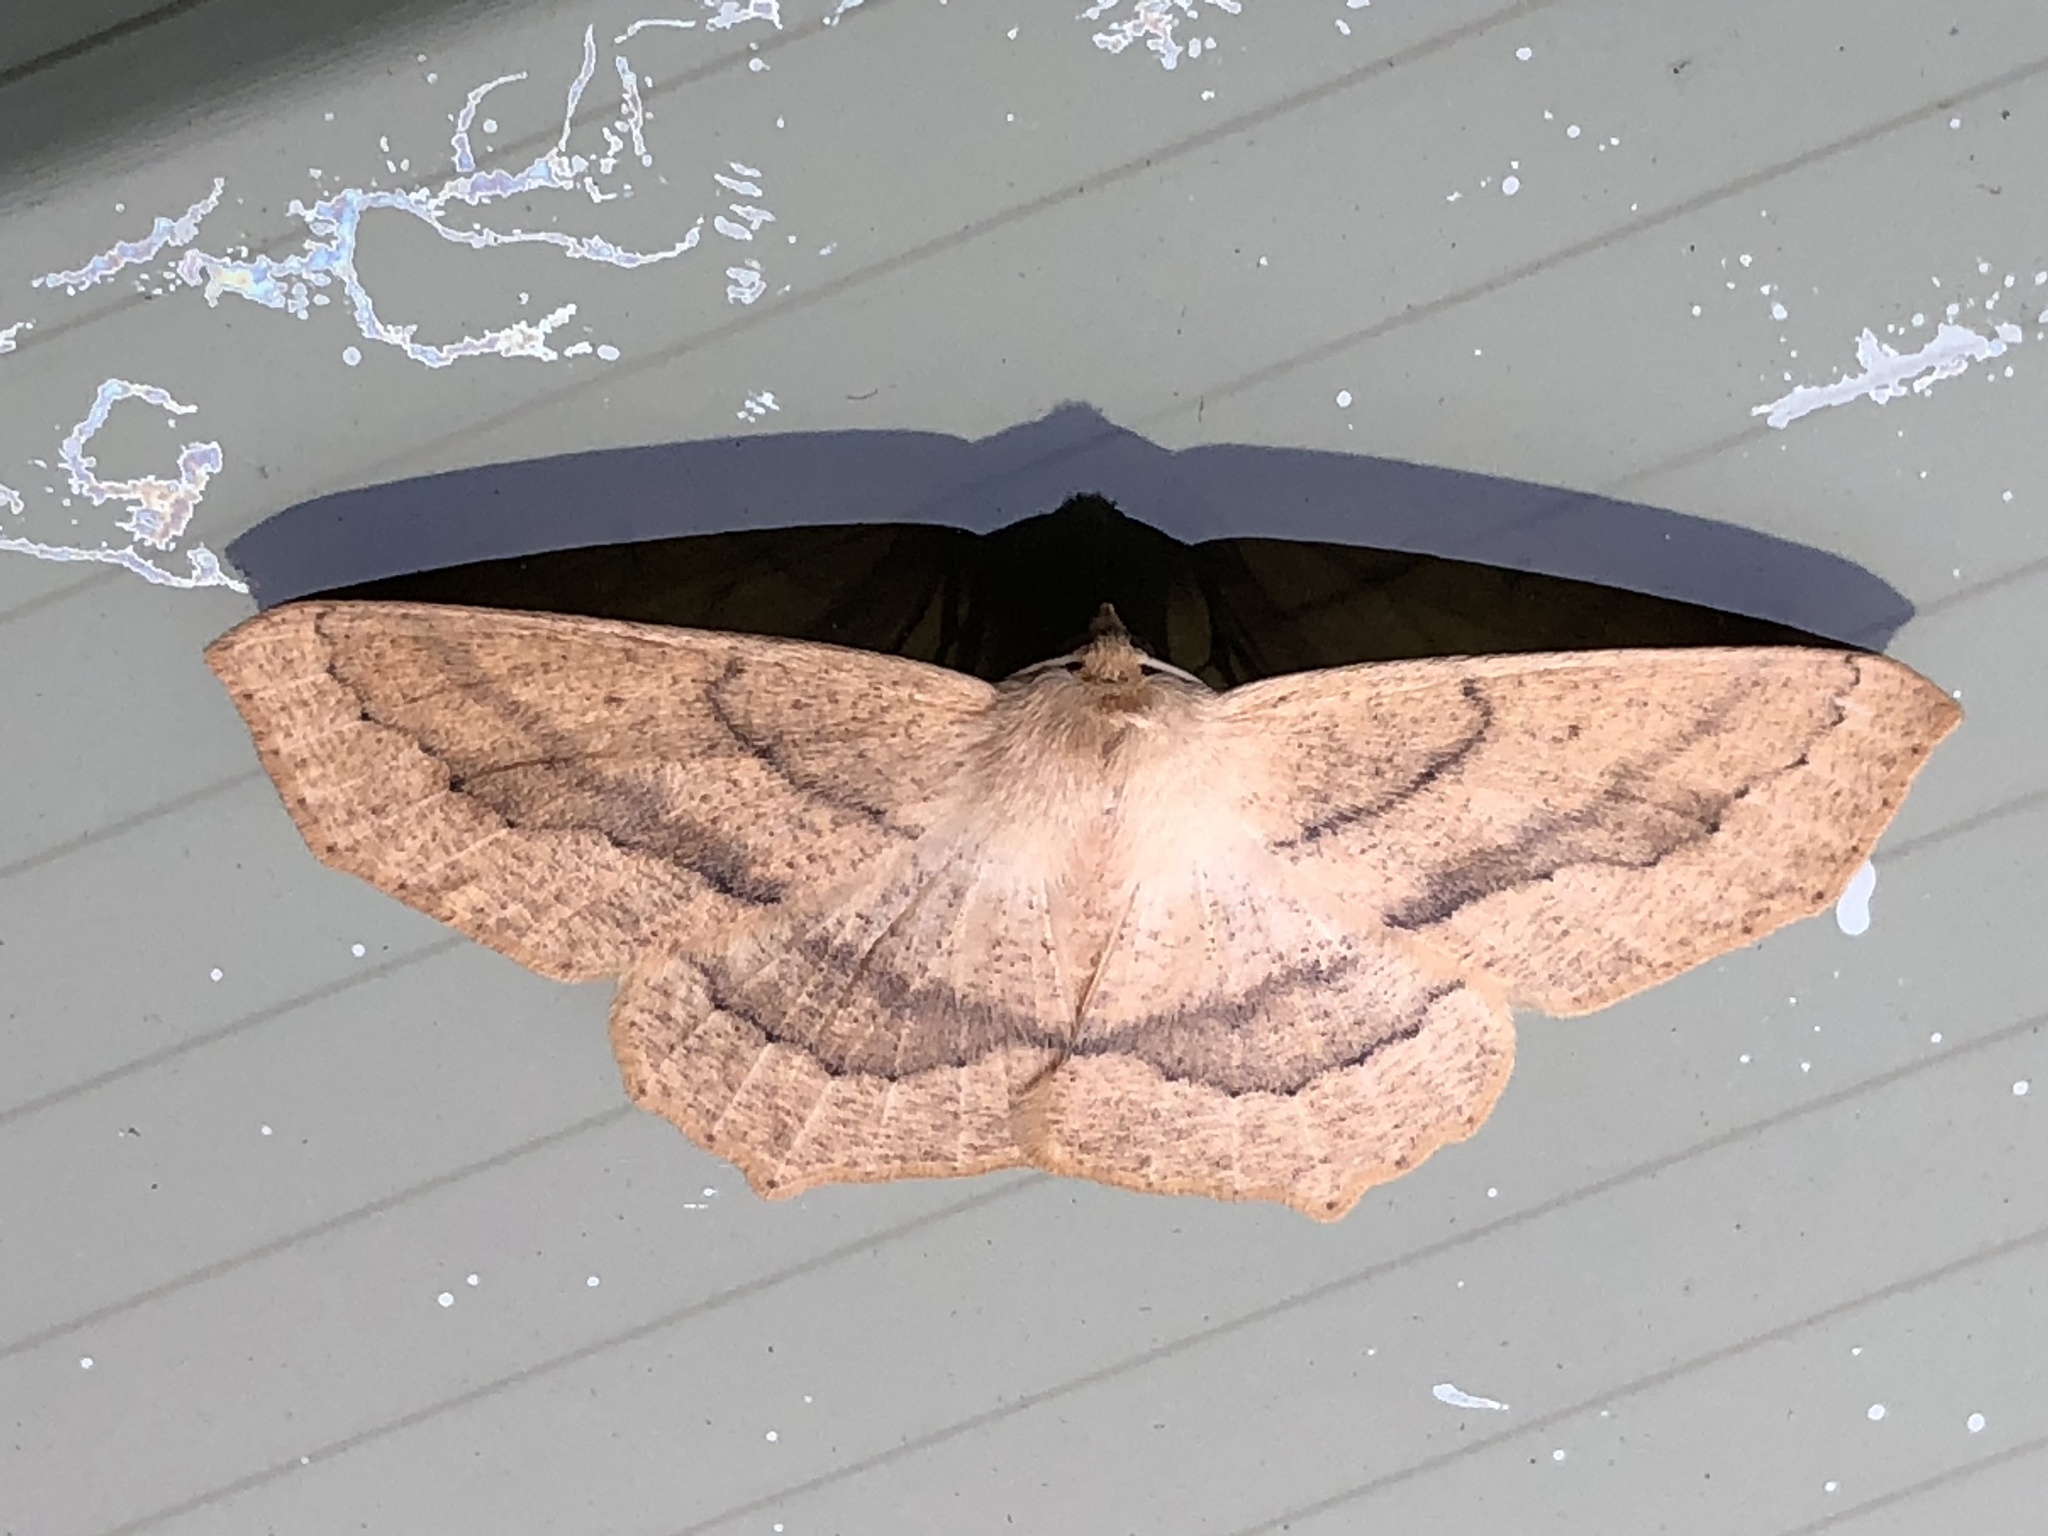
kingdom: Animalia
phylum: Arthropoda
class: Insecta
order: Lepidoptera
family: Geometridae
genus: Sabulodes
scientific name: Sabulodes aegrotata
